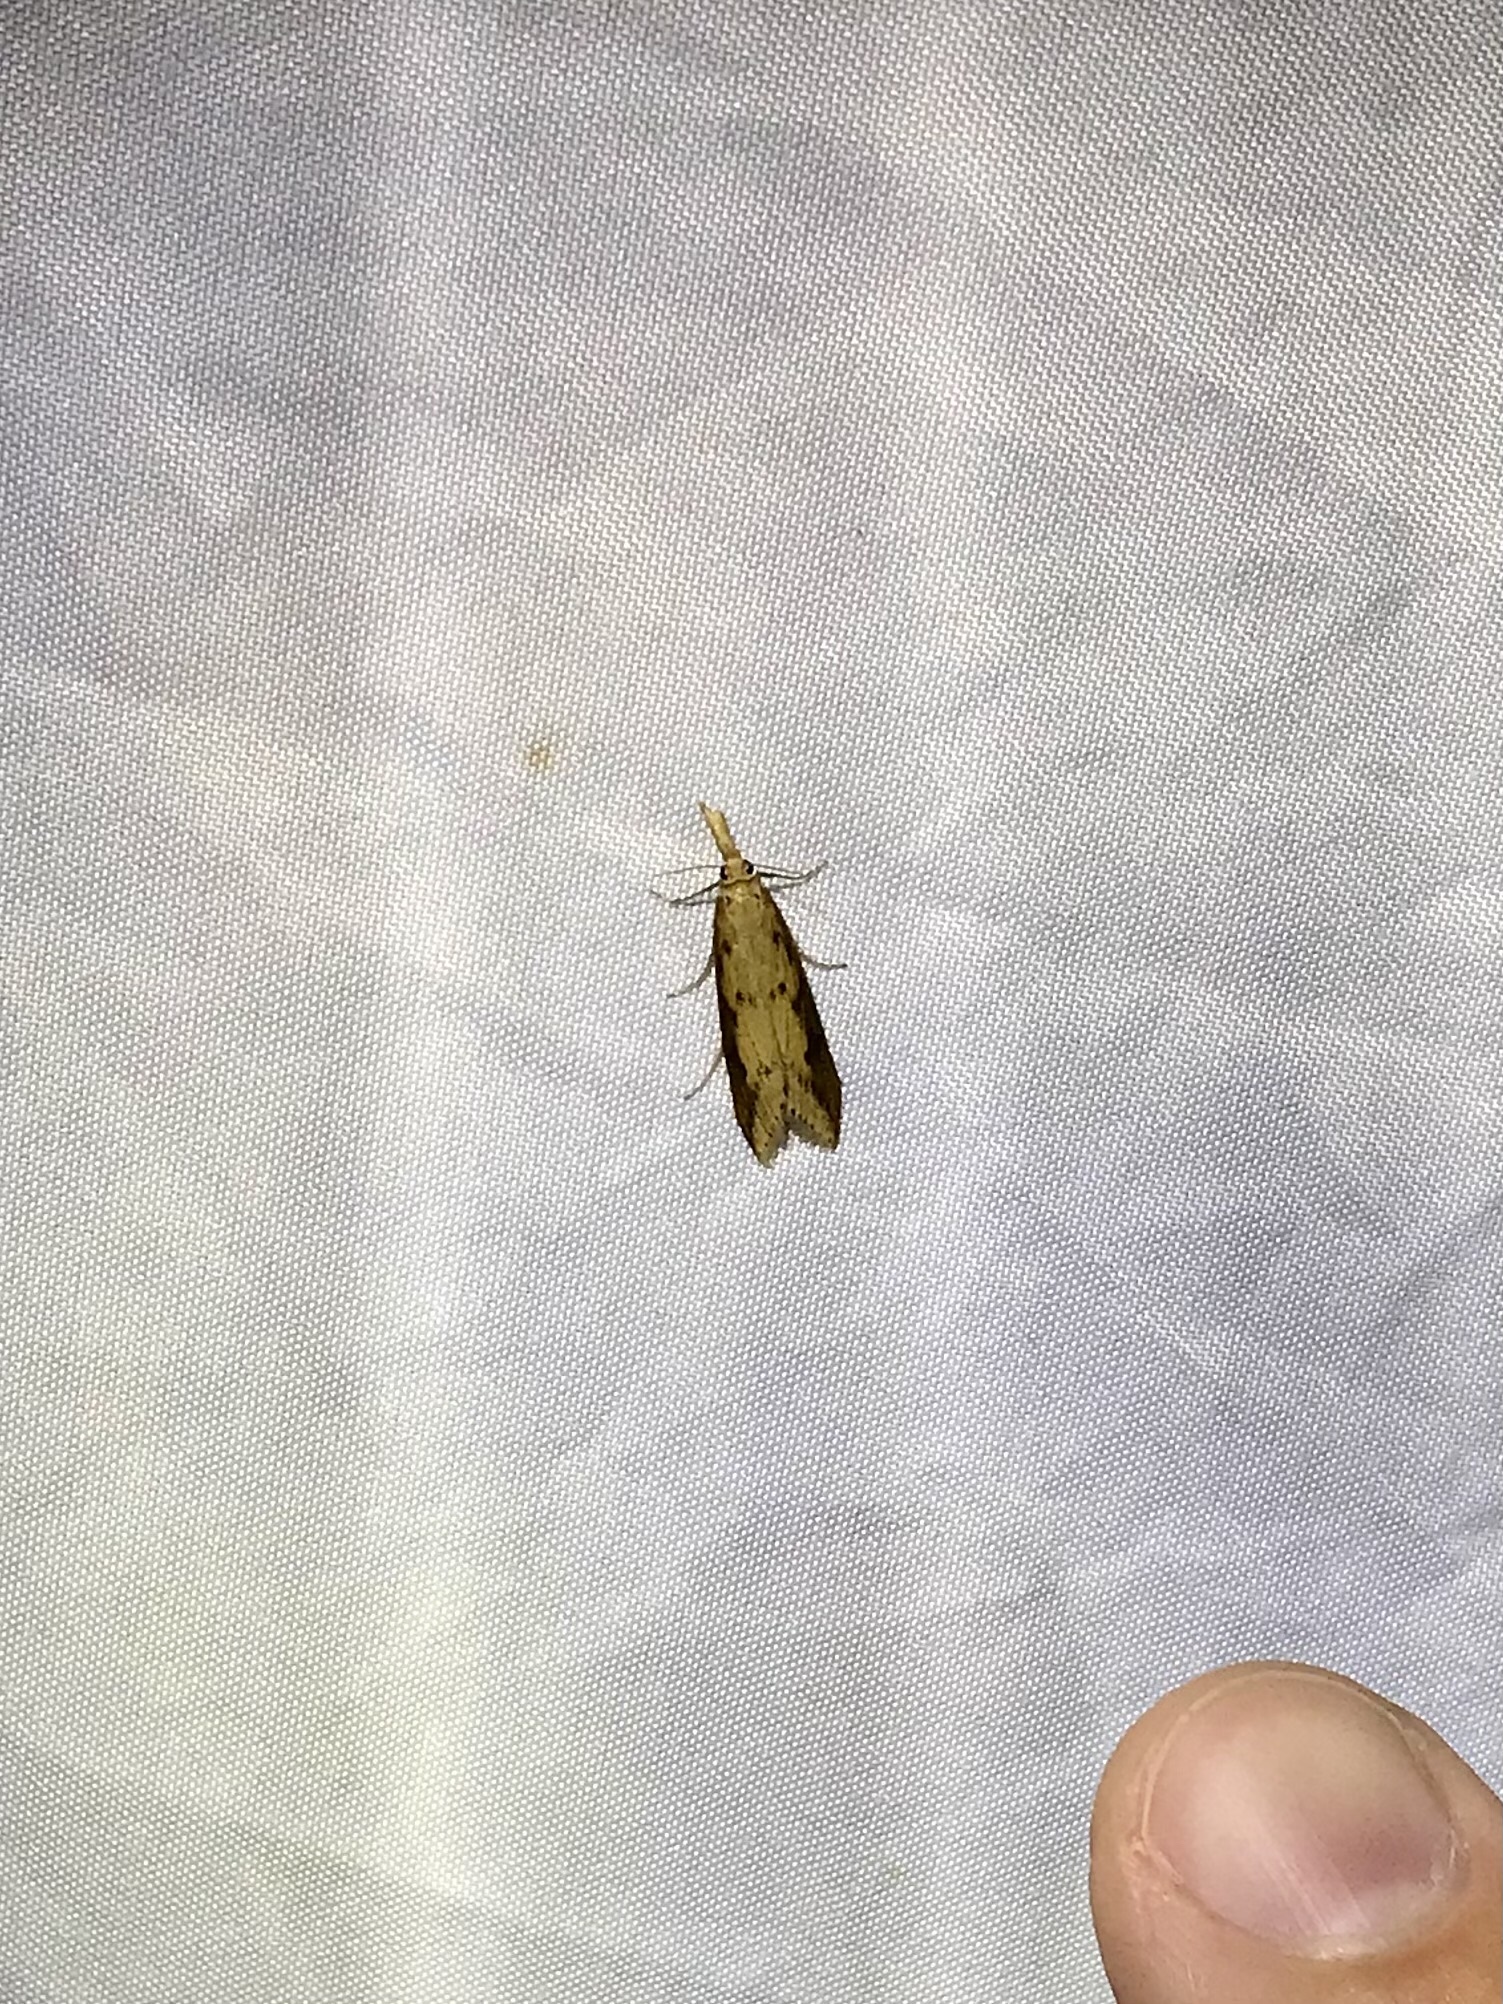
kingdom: Animalia
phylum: Arthropoda
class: Insecta
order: Lepidoptera
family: Crambidae
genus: Donacaula
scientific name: Donacaula melinellus
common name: Delightful donacaula moth
